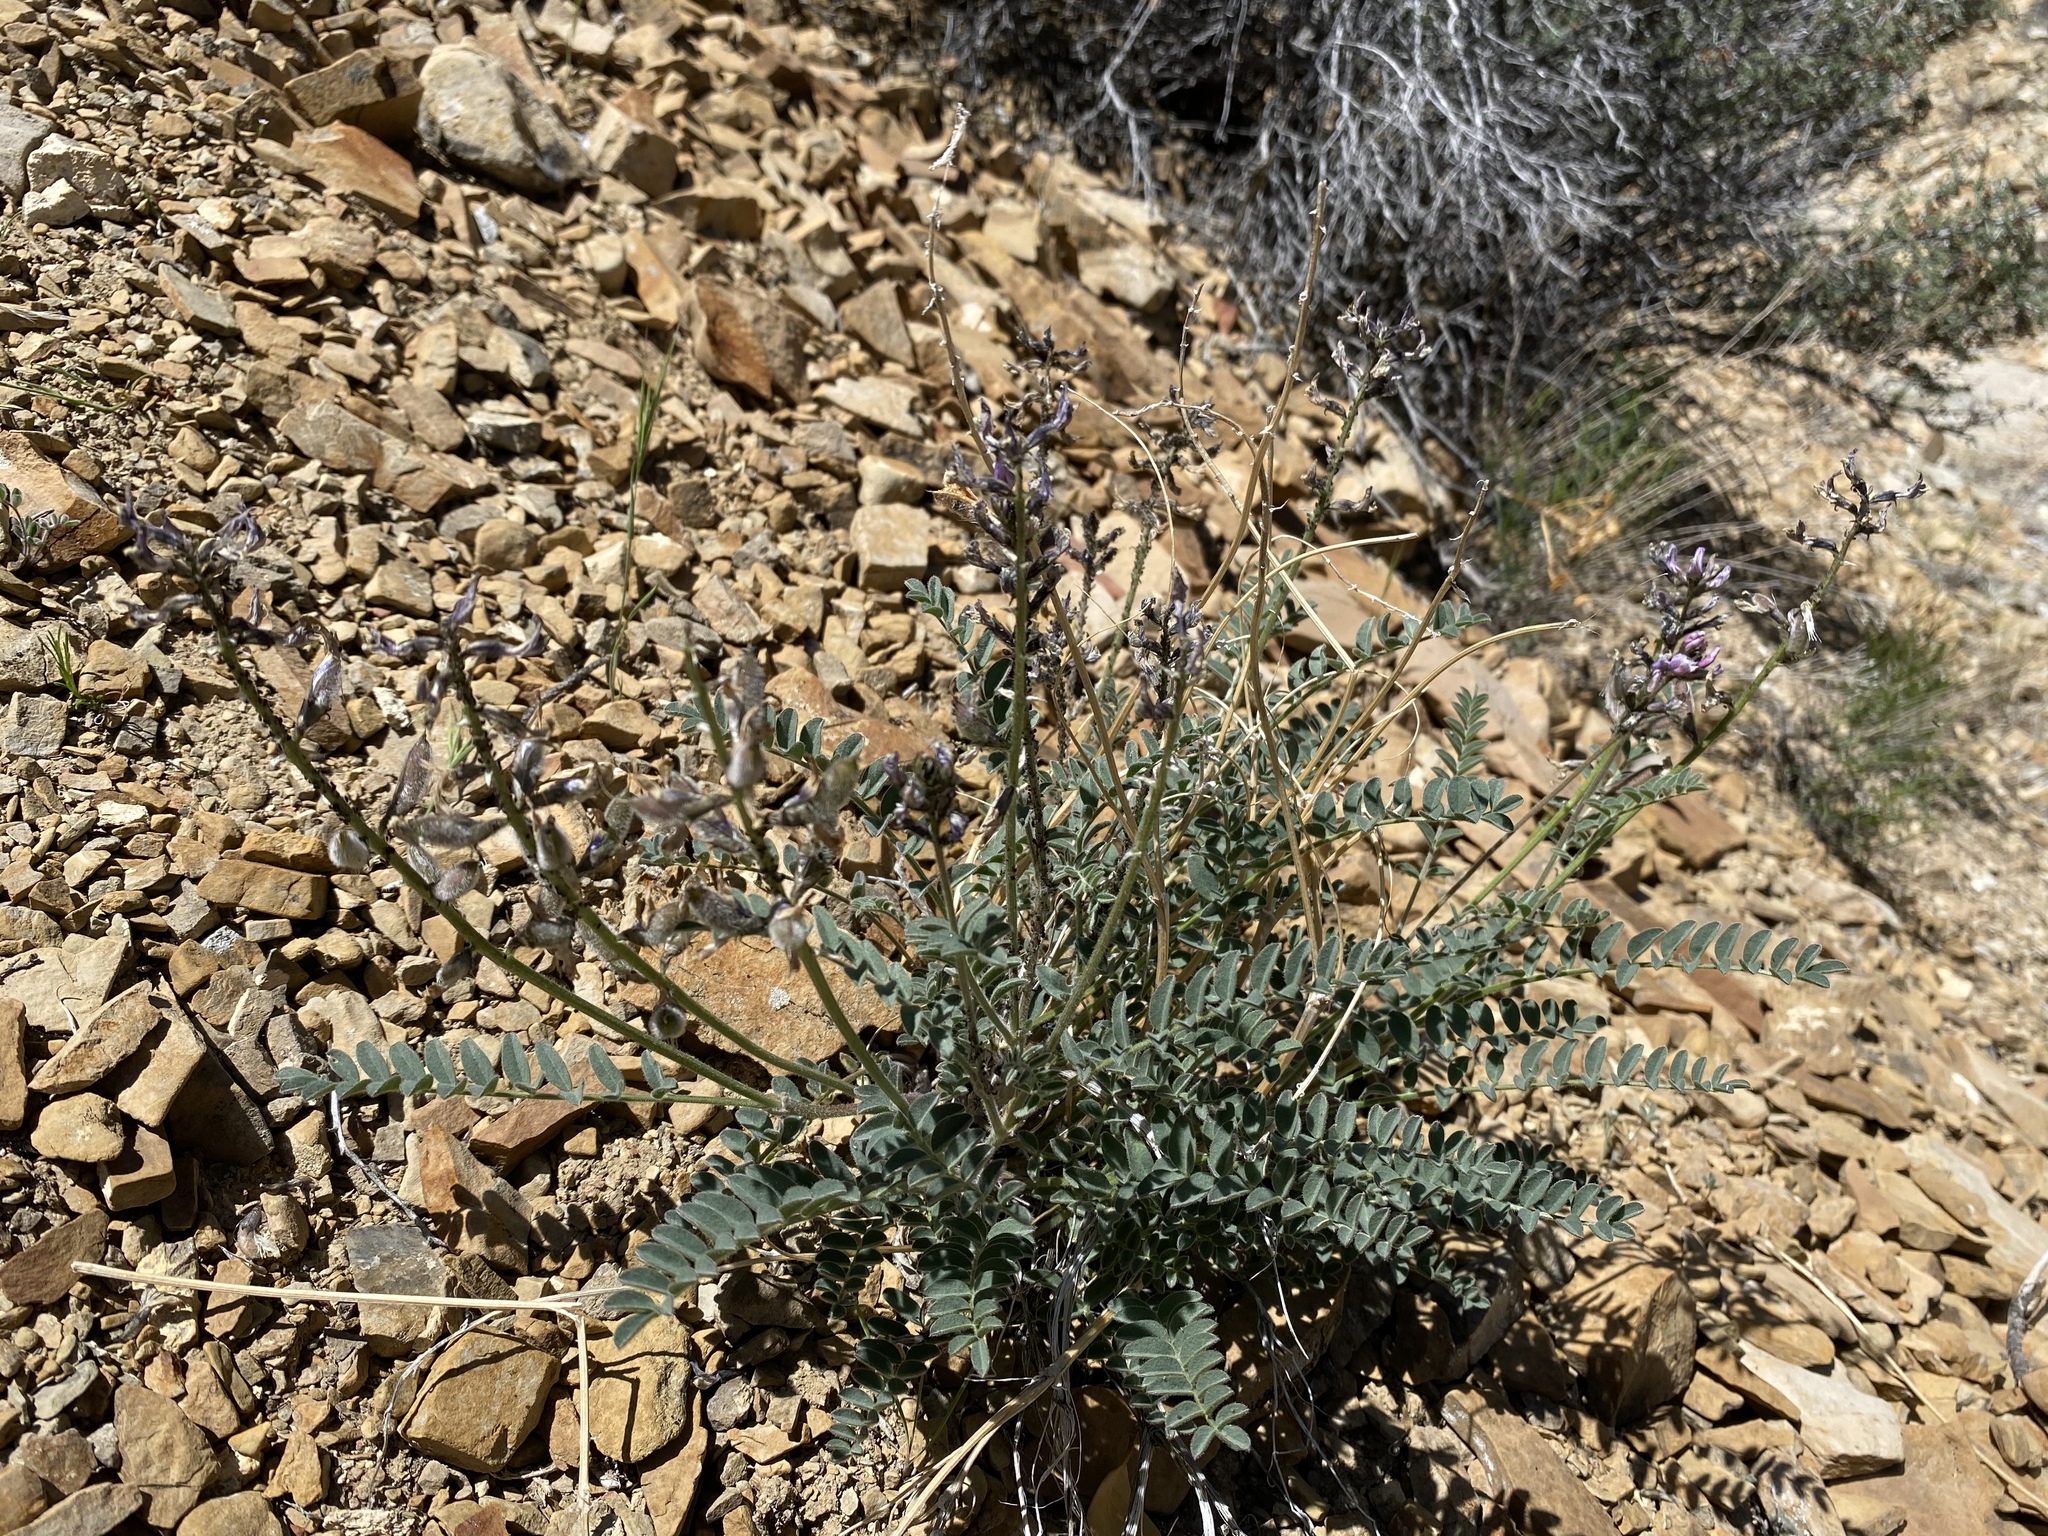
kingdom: Plantae
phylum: Tracheophyta
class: Magnoliopsida
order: Fabales
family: Fabaceae
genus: Astragalus
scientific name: Astragalus minthorniae
